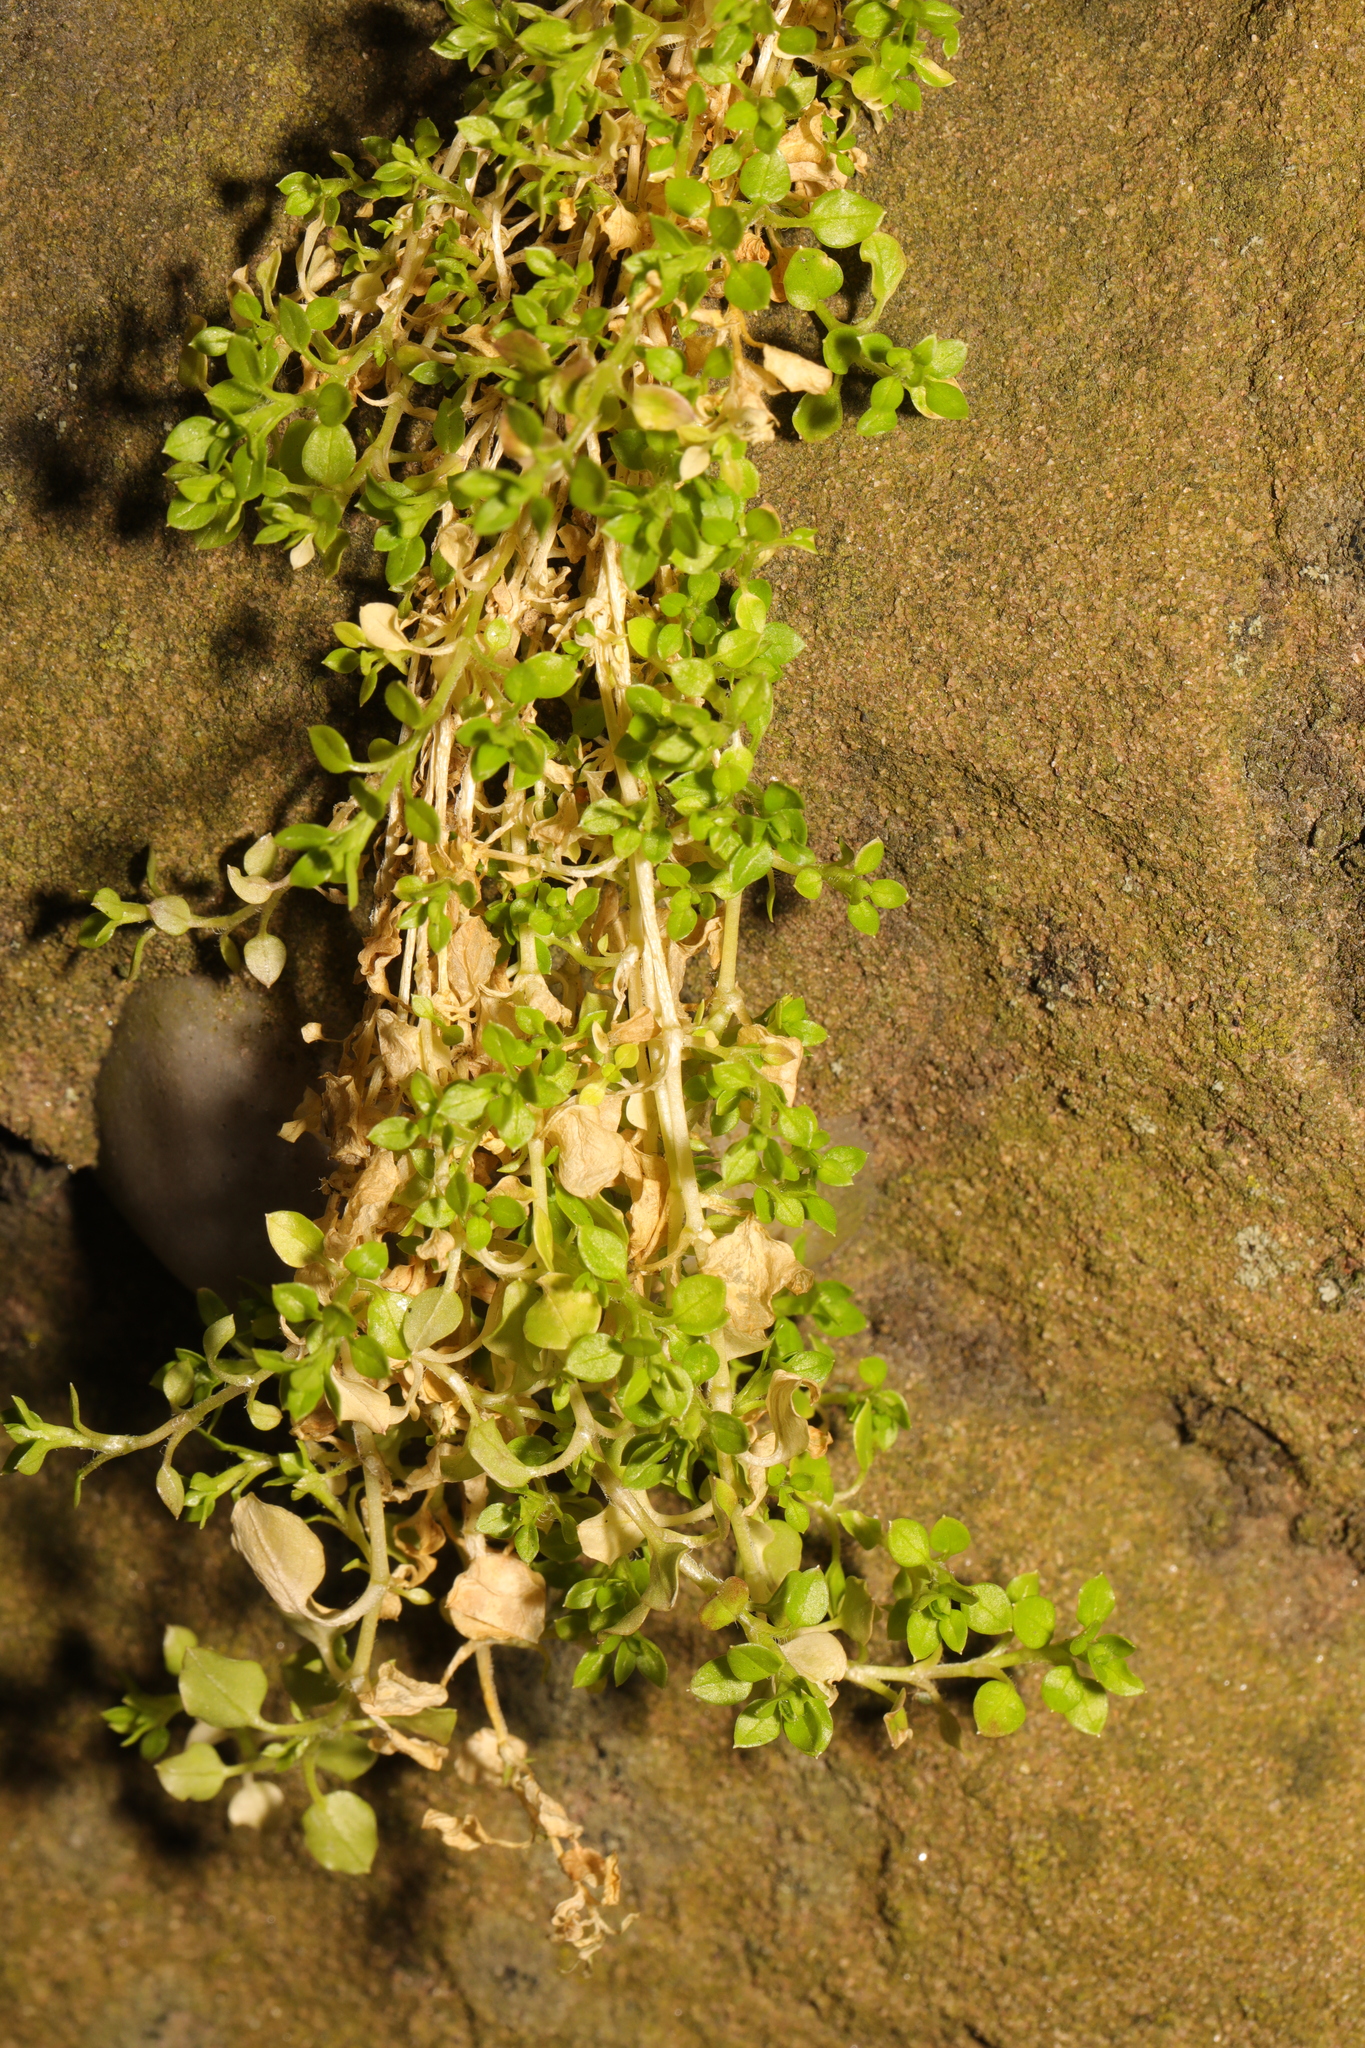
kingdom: Plantae
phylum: Tracheophyta
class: Magnoliopsida
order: Caryophyllales
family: Caryophyllaceae
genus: Stellaria
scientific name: Stellaria apetala
